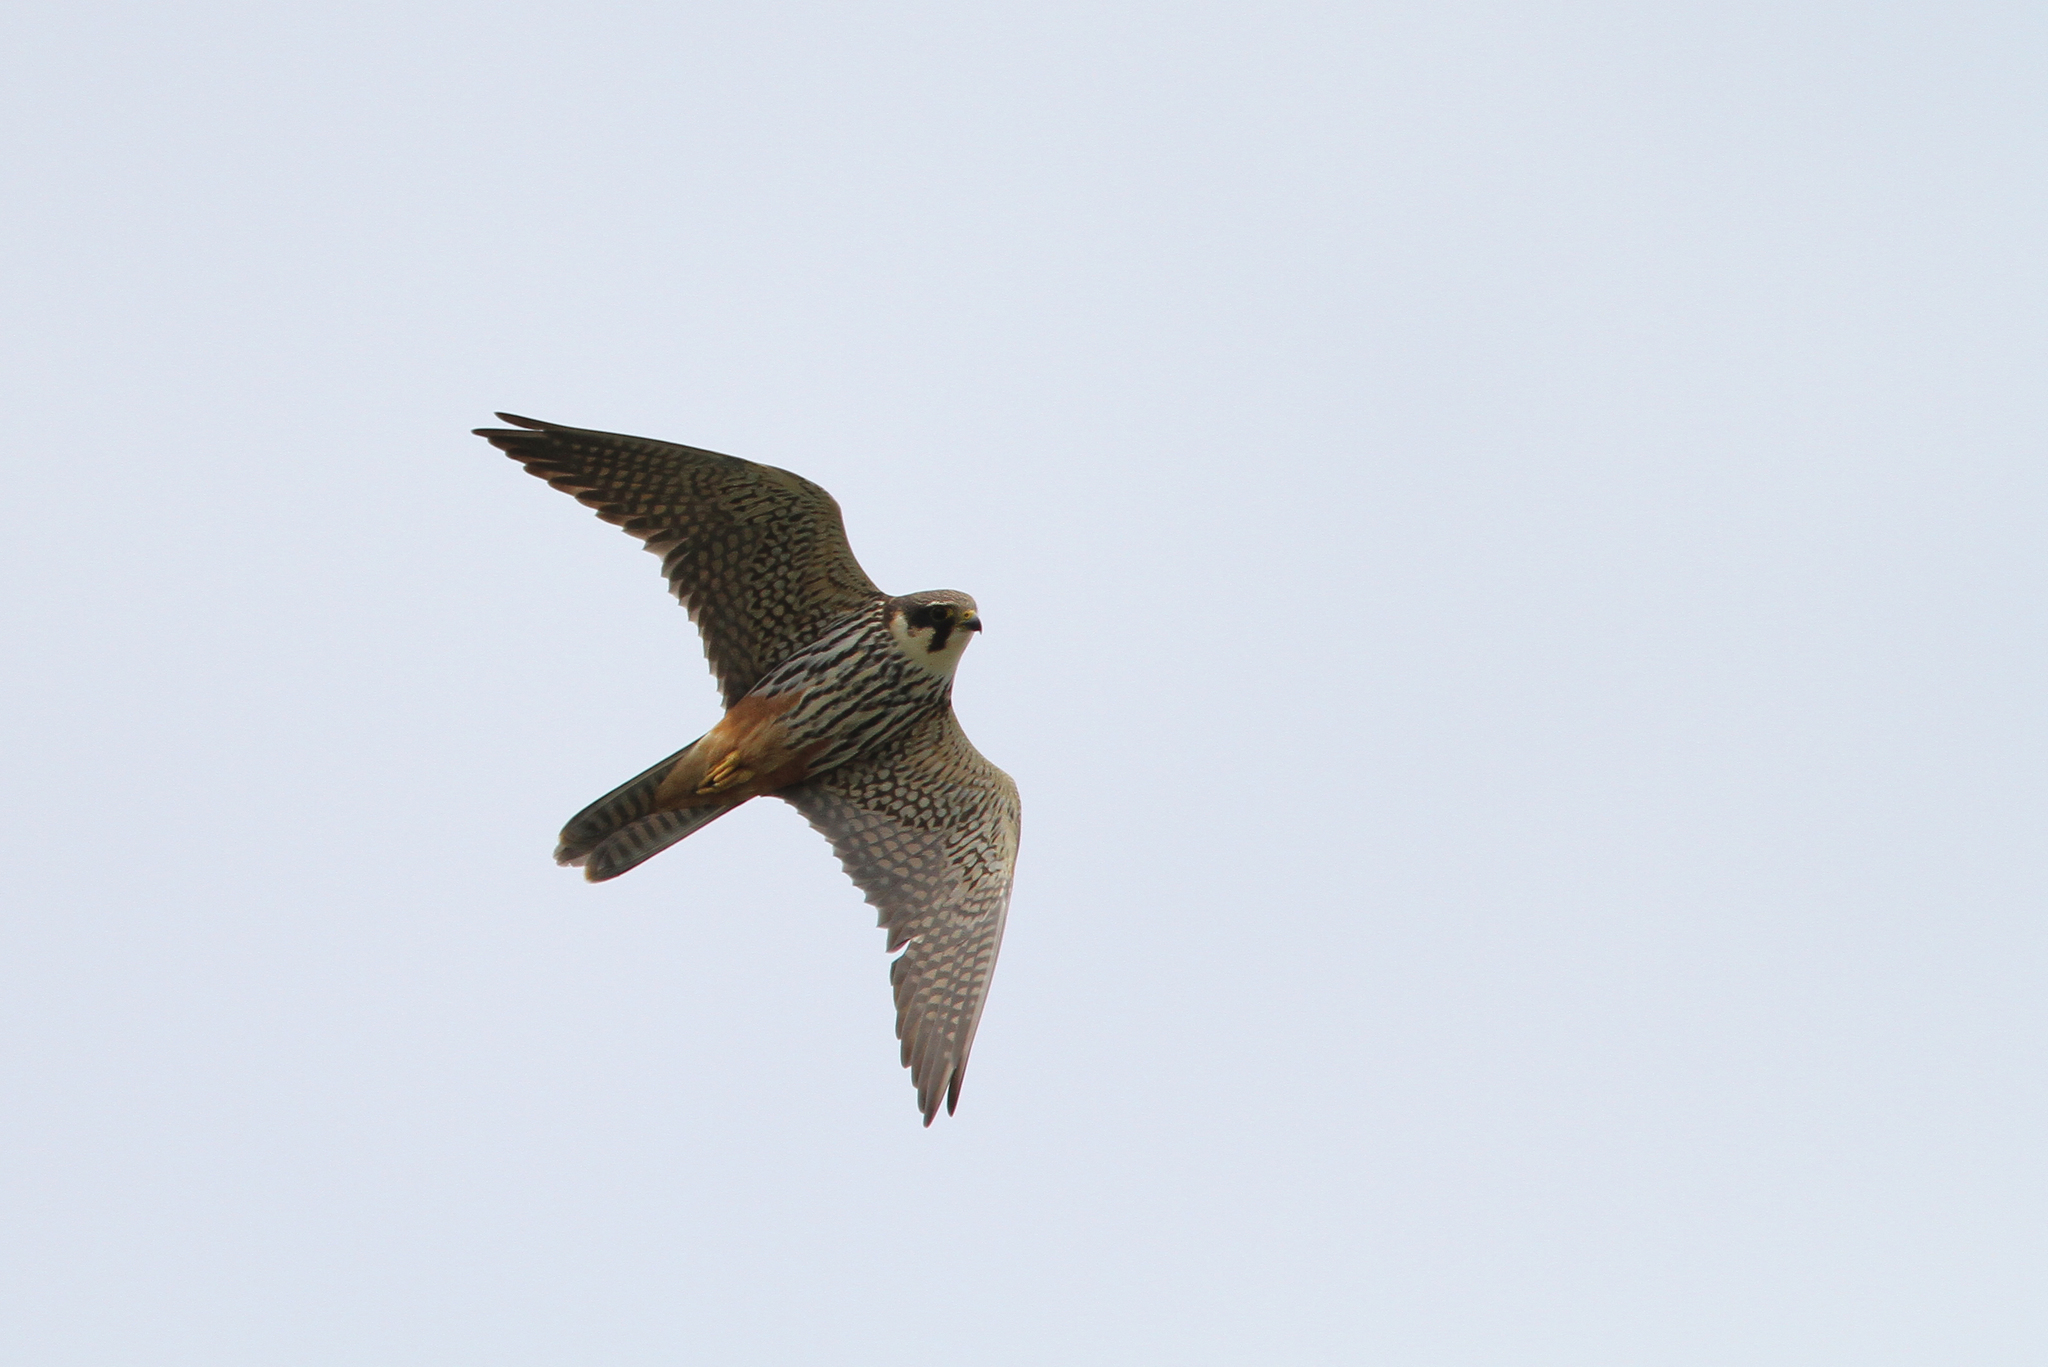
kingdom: Animalia
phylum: Chordata
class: Aves
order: Falconiformes
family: Falconidae
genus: Falco
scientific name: Falco subbuteo
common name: Eurasian hobby
